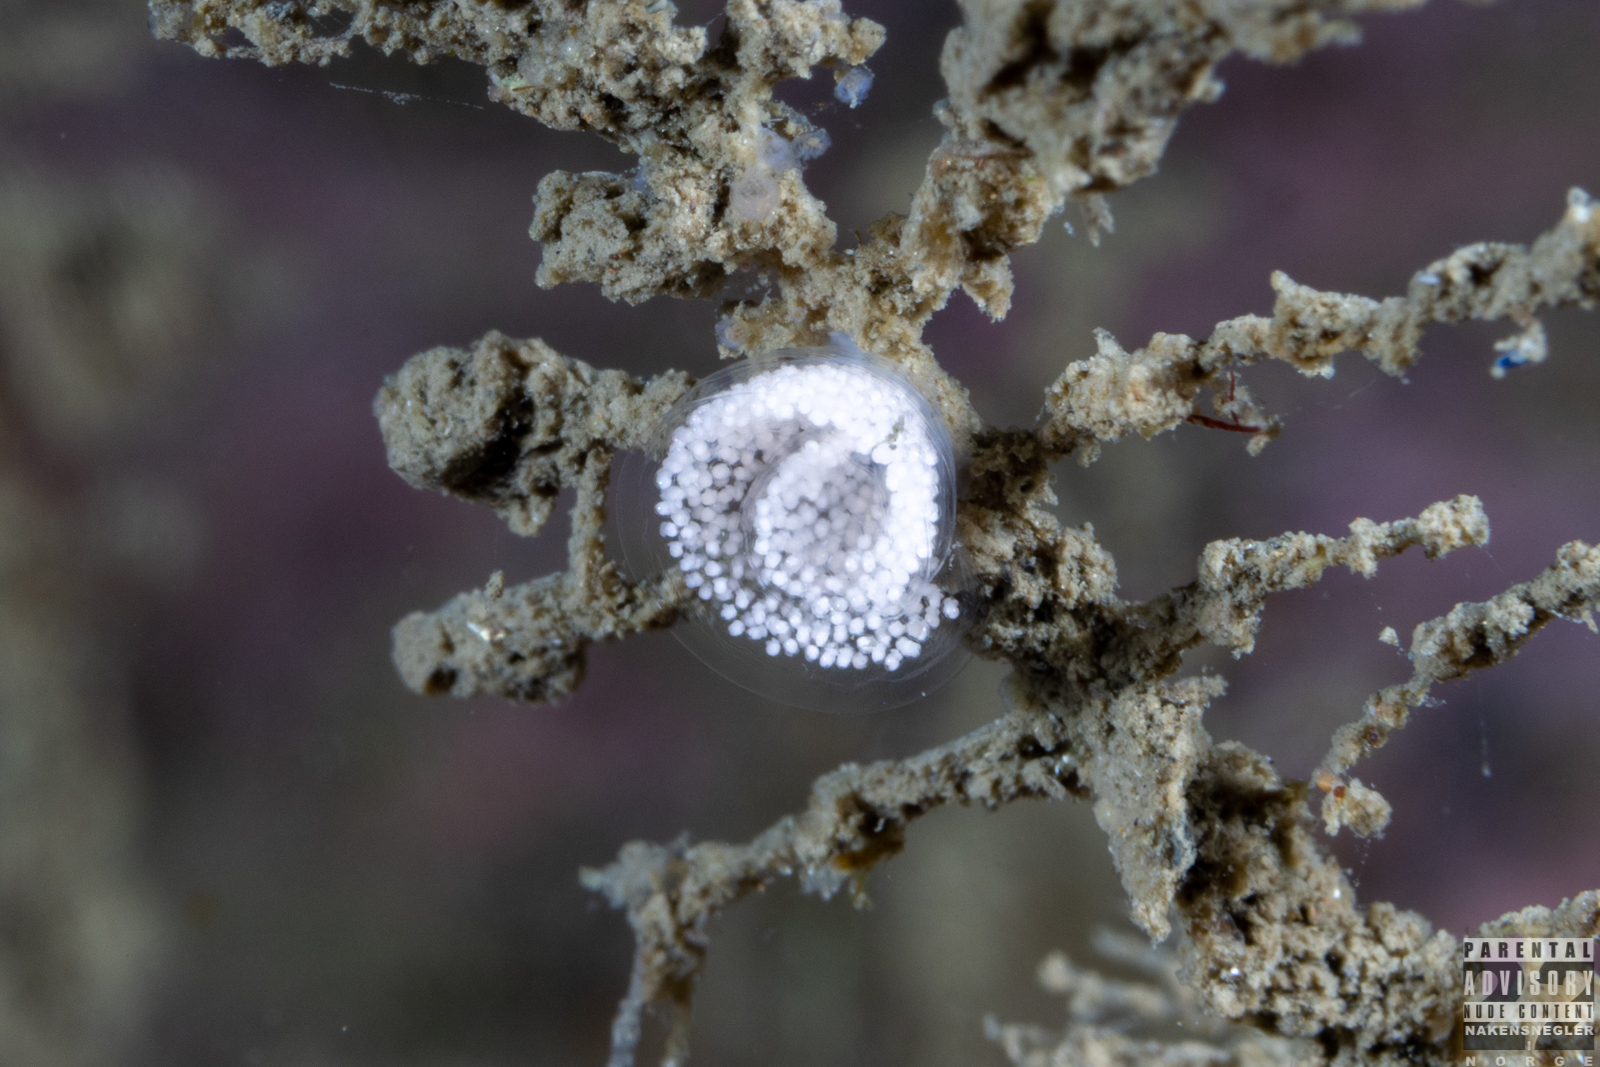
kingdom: Animalia
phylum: Mollusca
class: Gastropoda
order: Nudibranchia
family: Eubranchidae
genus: Eubranchus
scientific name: Eubranchus tricolor
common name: Painted balloon aeolis
